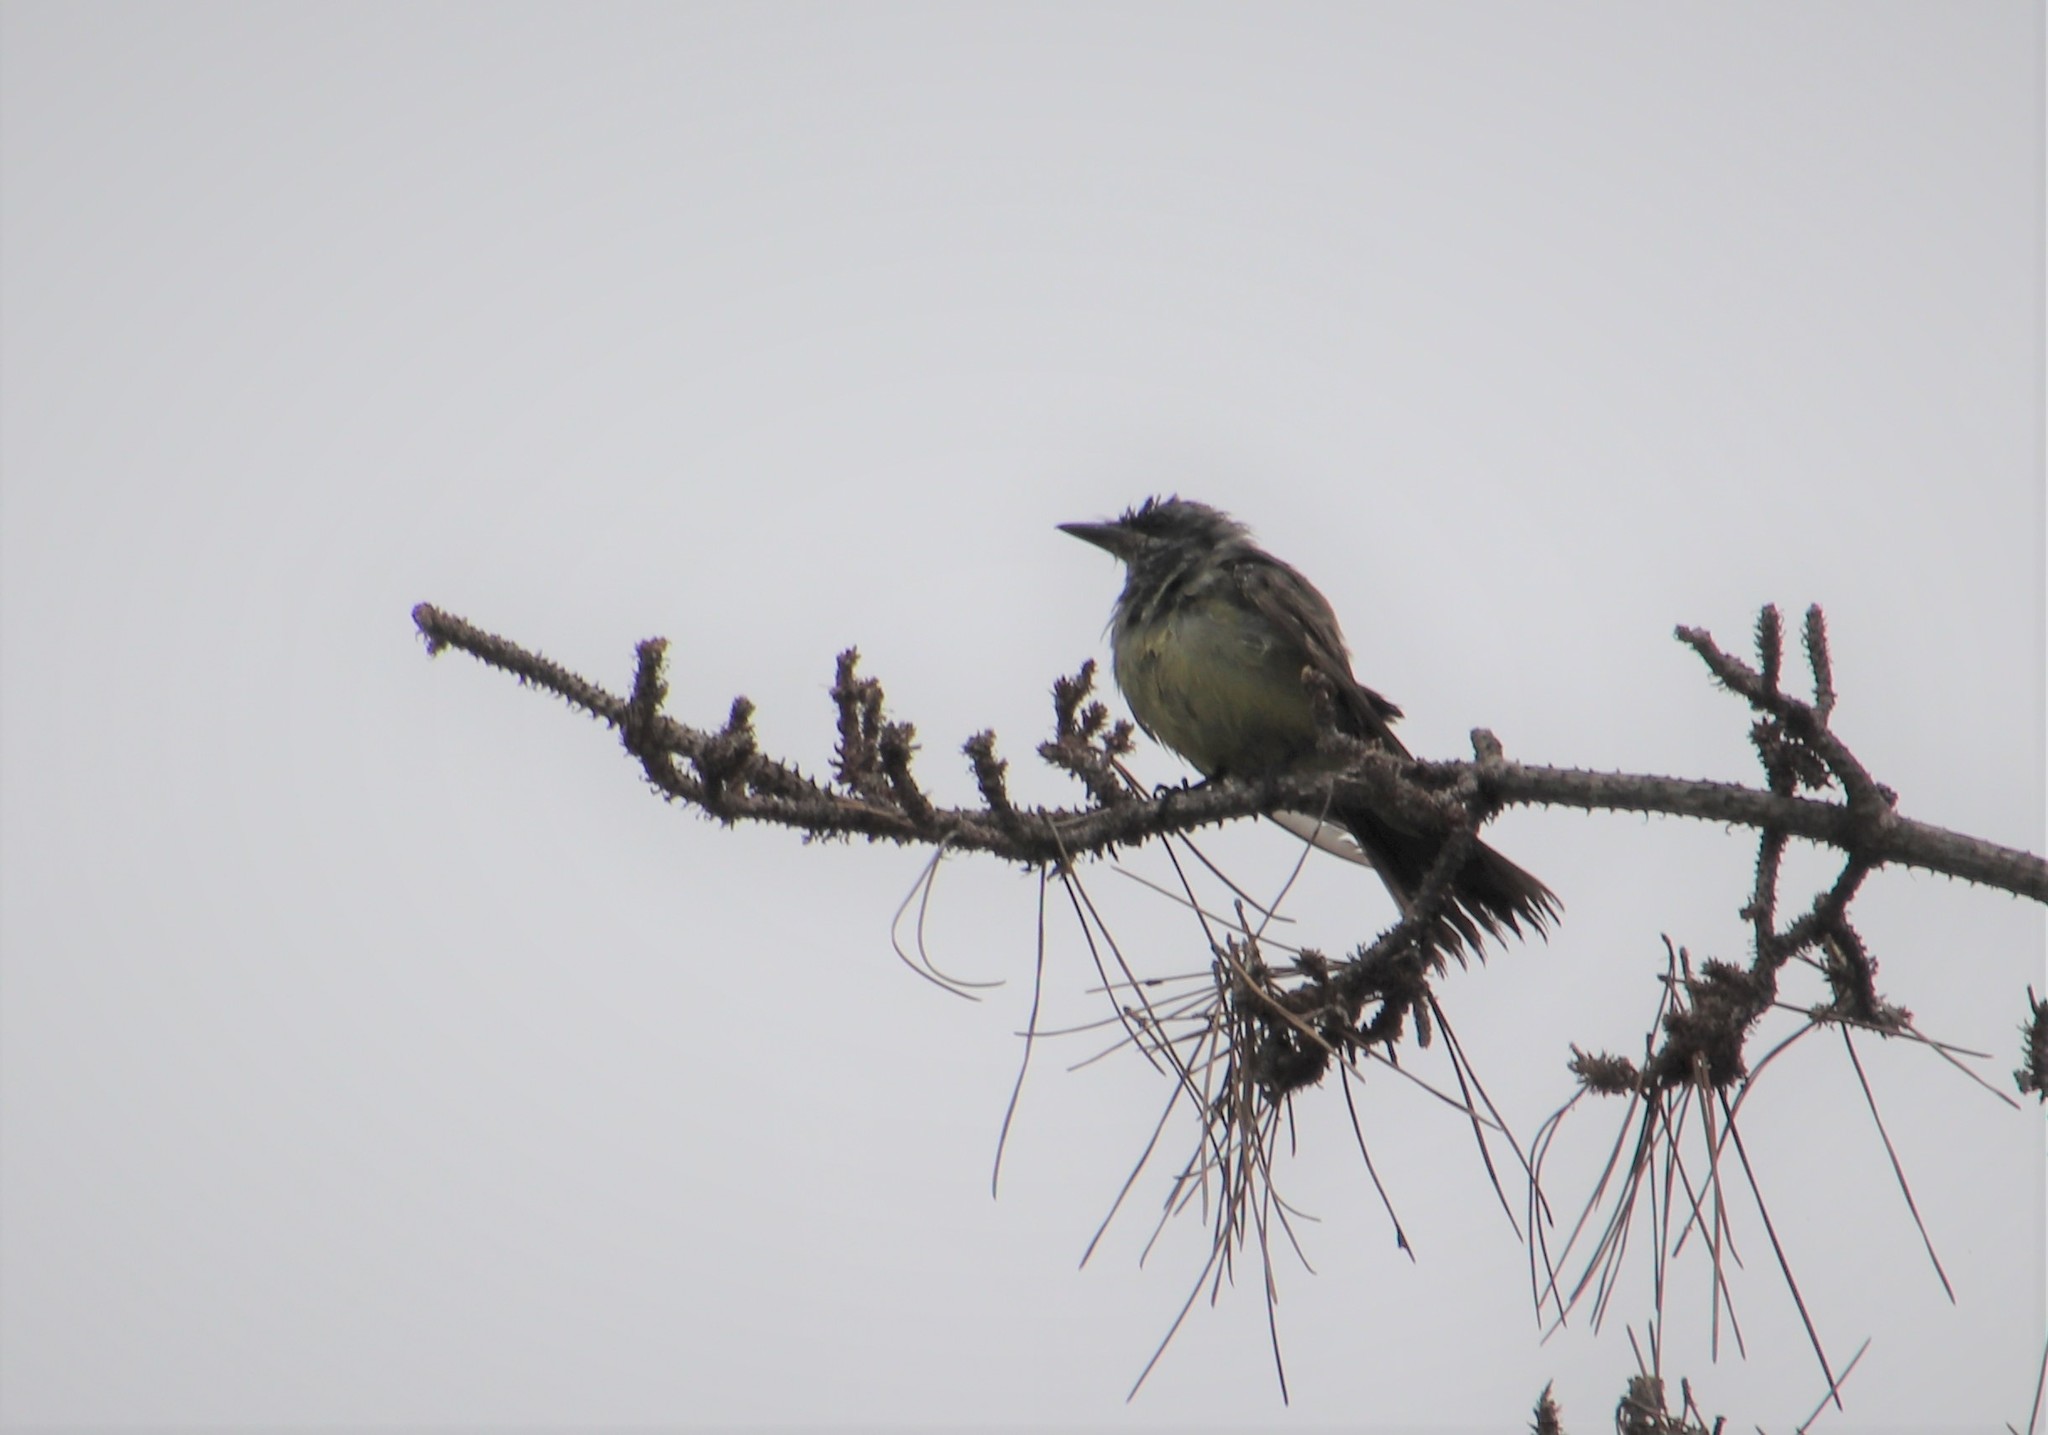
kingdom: Animalia
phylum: Chordata
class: Aves
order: Passeriformes
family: Tyrannidae
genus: Tyrannus
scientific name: Tyrannus vociferans
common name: Cassin's kingbird
